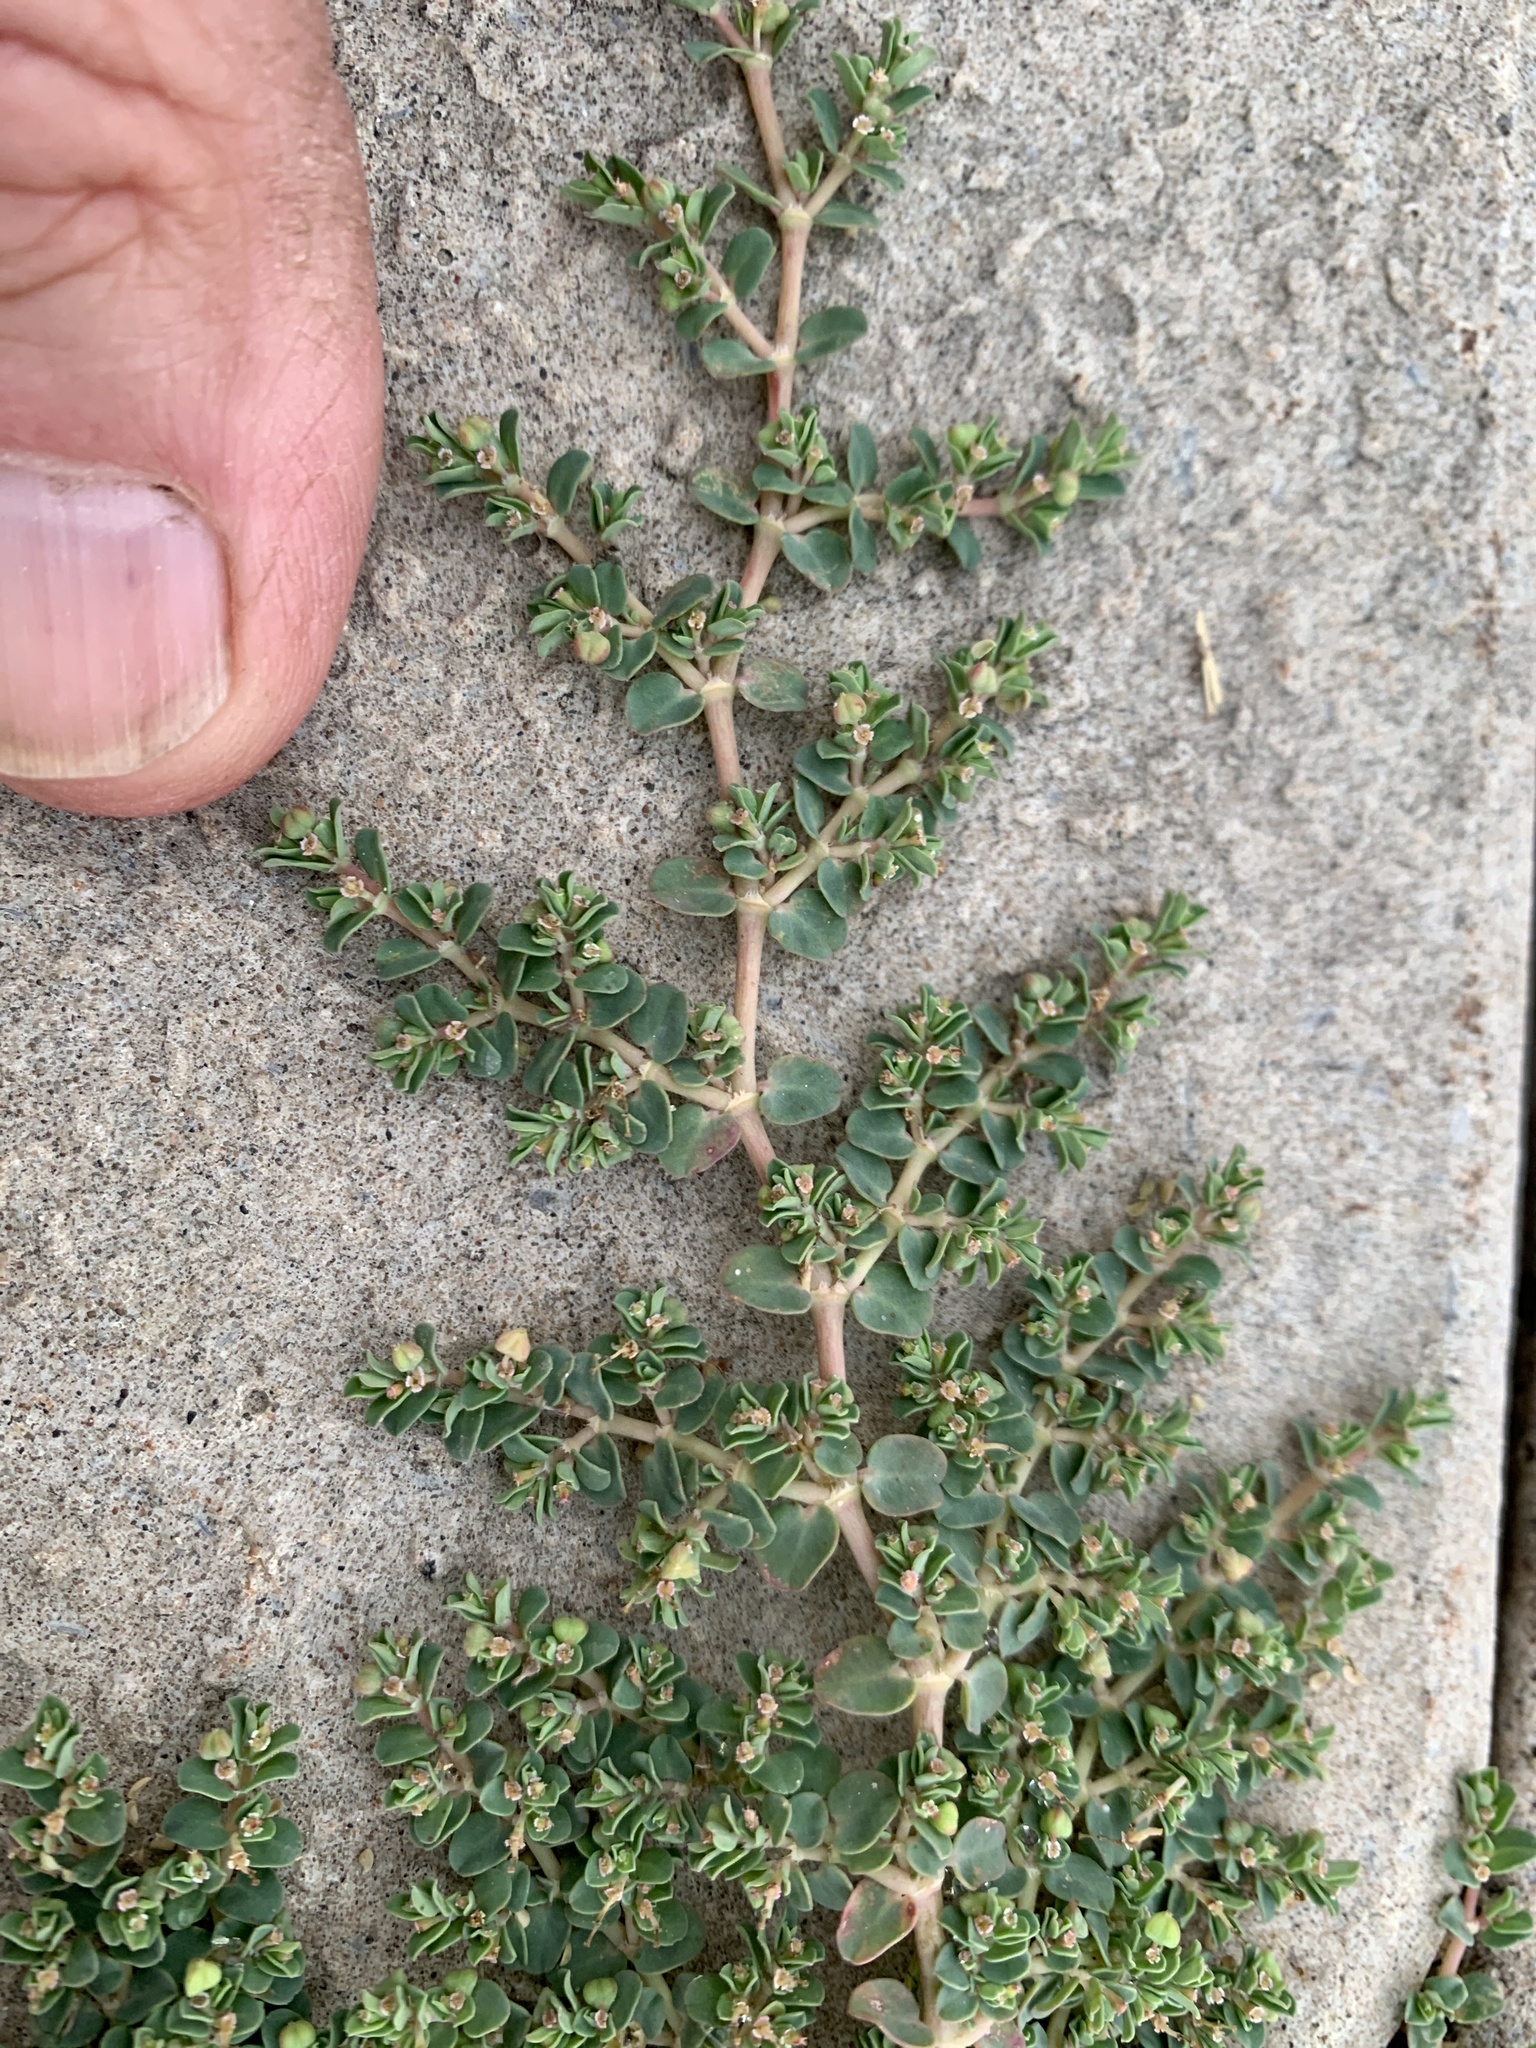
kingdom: Plantae
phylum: Tracheophyta
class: Magnoliopsida
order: Malpighiales
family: Euphorbiaceae
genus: Euphorbia
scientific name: Euphorbia serpens
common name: Matted sandmat
